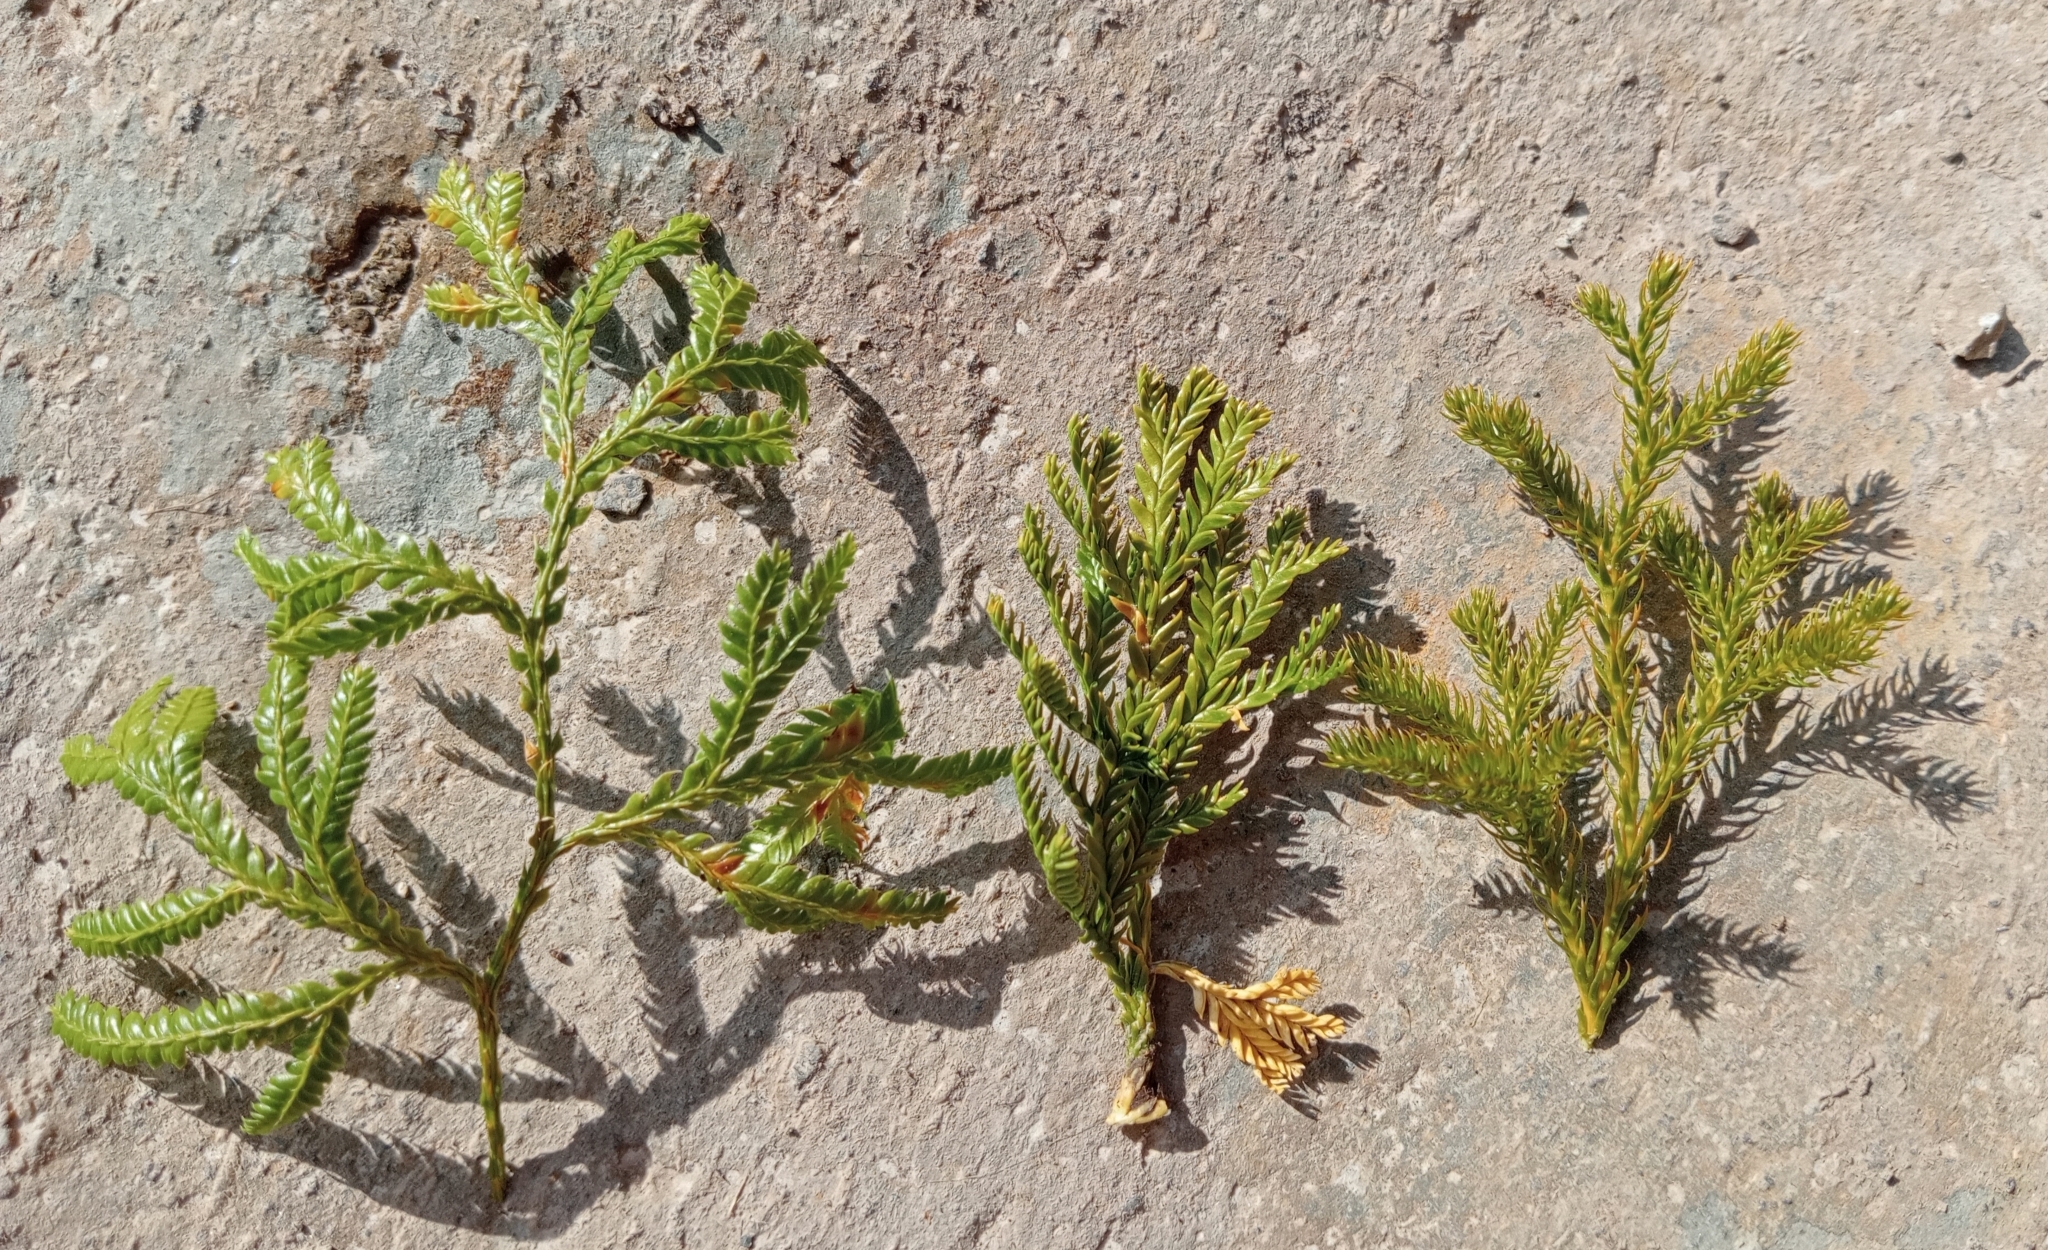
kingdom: Plantae
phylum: Tracheophyta
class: Lycopodiopsida
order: Lycopodiales
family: Lycopodiaceae
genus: Austrolycopodium
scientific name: Austrolycopodium fastigiatum
